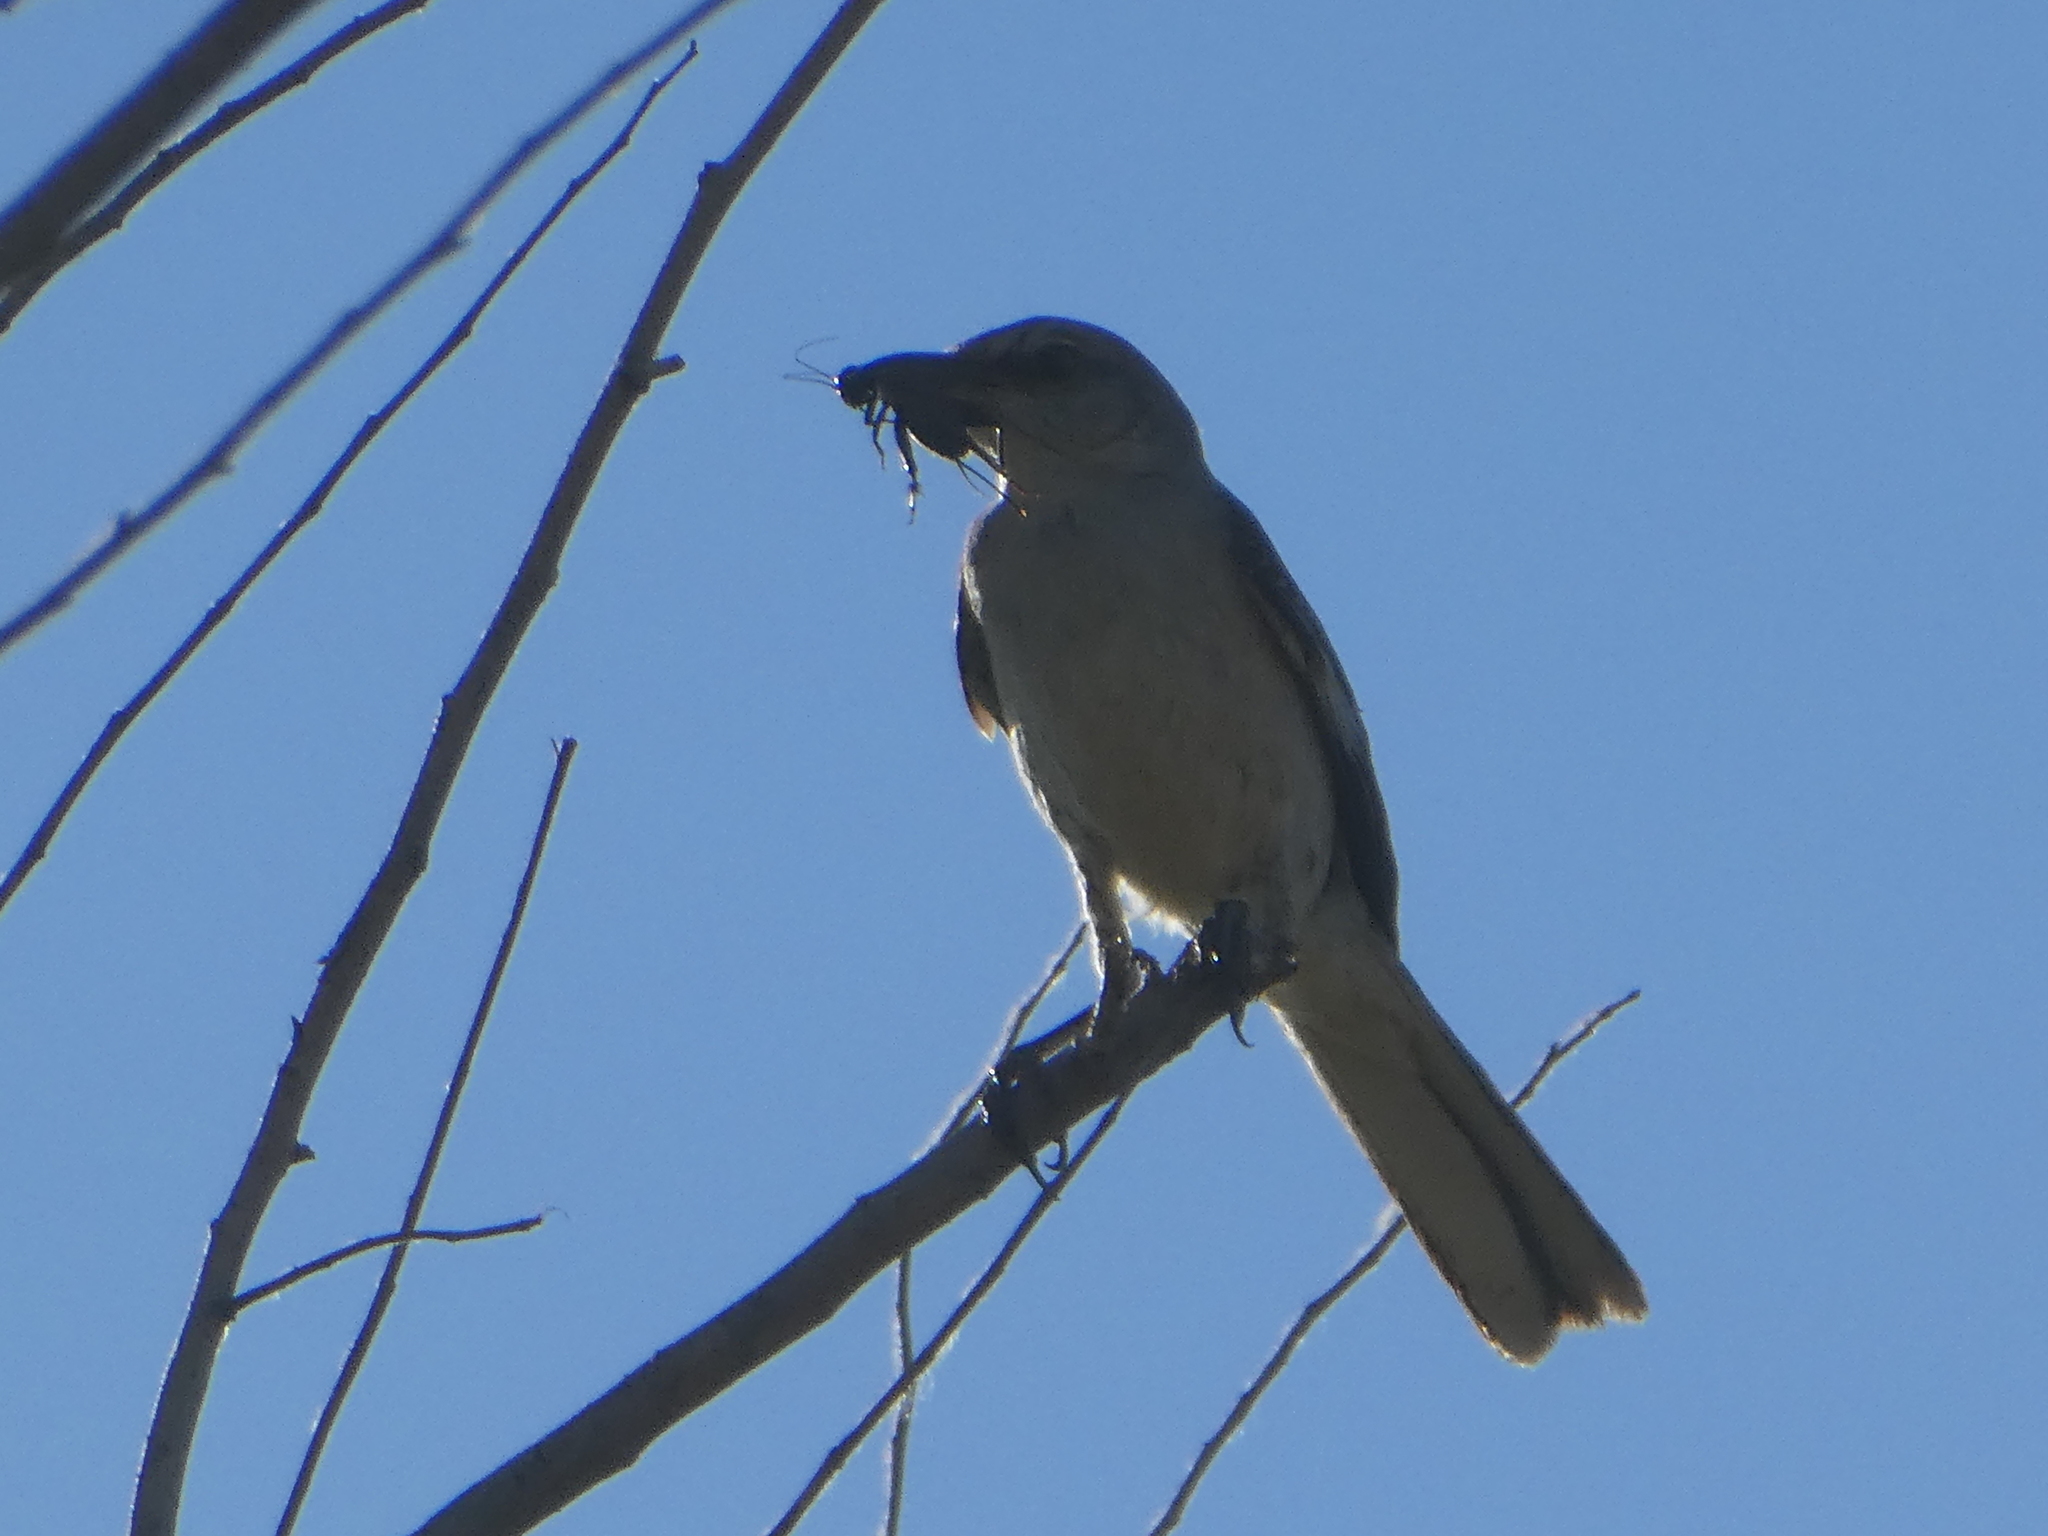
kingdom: Animalia
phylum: Chordata
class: Aves
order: Passeriformes
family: Mimidae
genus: Mimus
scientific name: Mimus polyglottos
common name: Northern mockingbird
